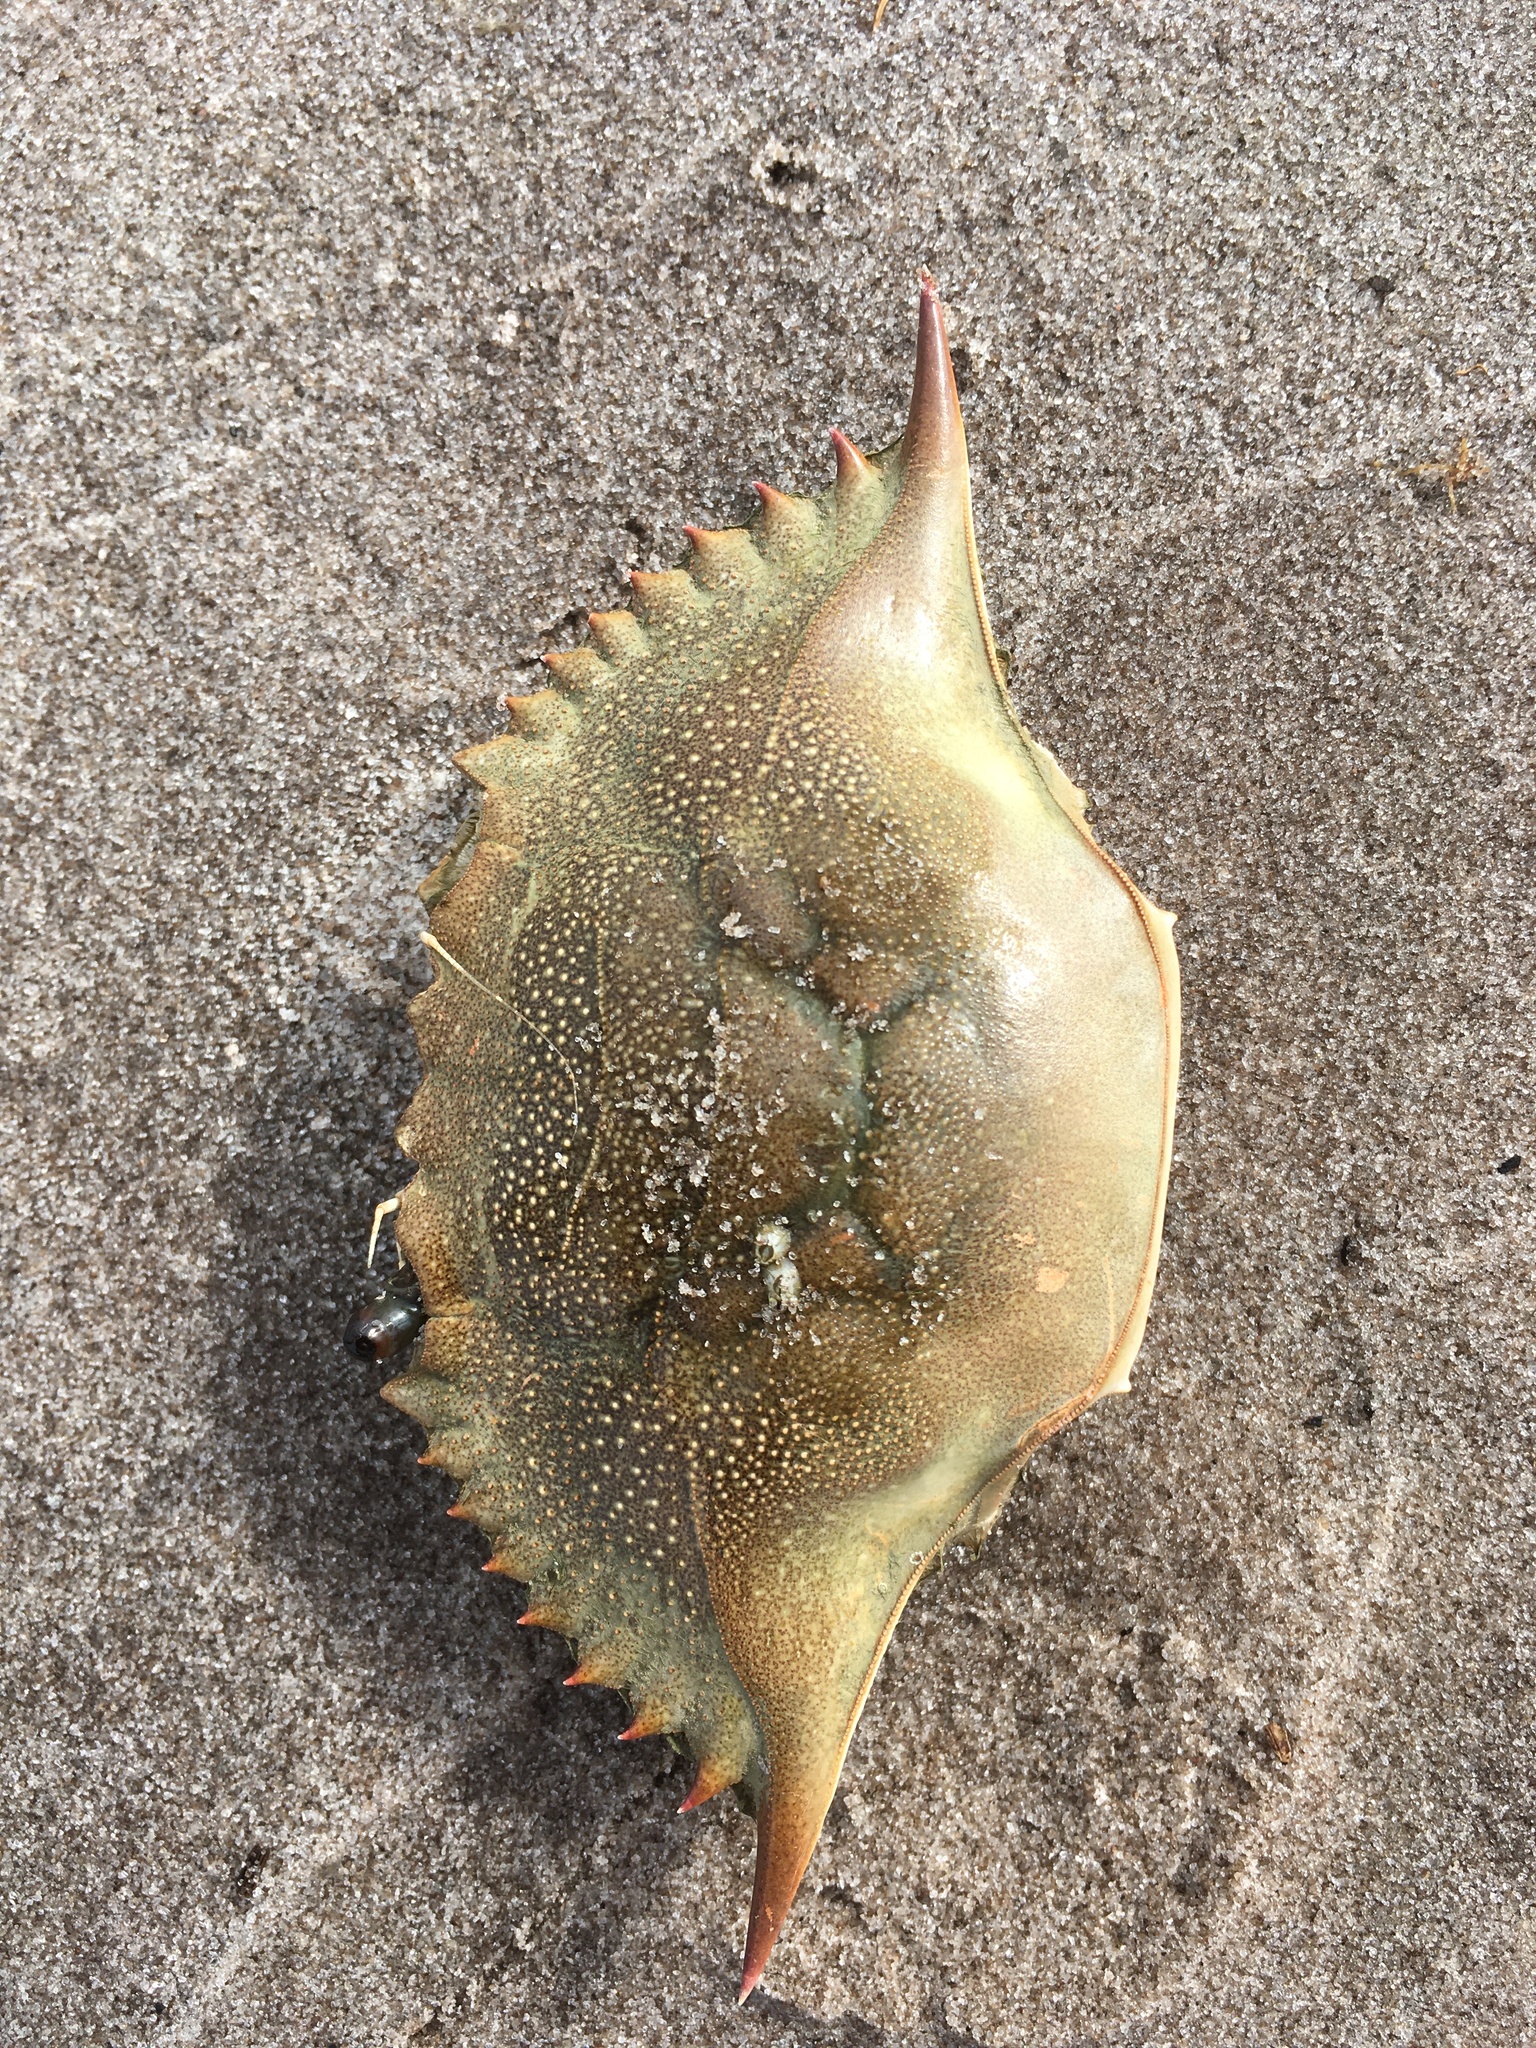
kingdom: Animalia
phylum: Arthropoda
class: Malacostraca
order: Decapoda
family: Portunidae
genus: Callinectes
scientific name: Callinectes sapidus
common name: Blue crab
